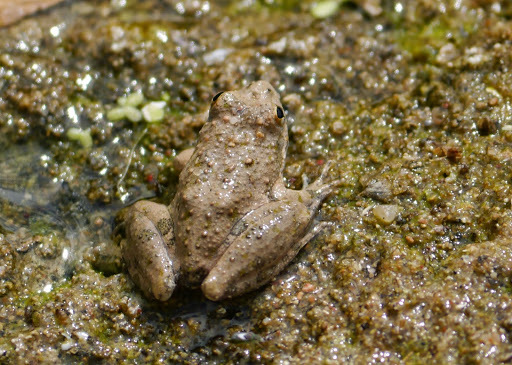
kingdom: Animalia
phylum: Chordata
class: Amphibia
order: Anura
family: Hylidae
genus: Acris
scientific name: Acris blanchardi
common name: Blanchard's cricket frog
